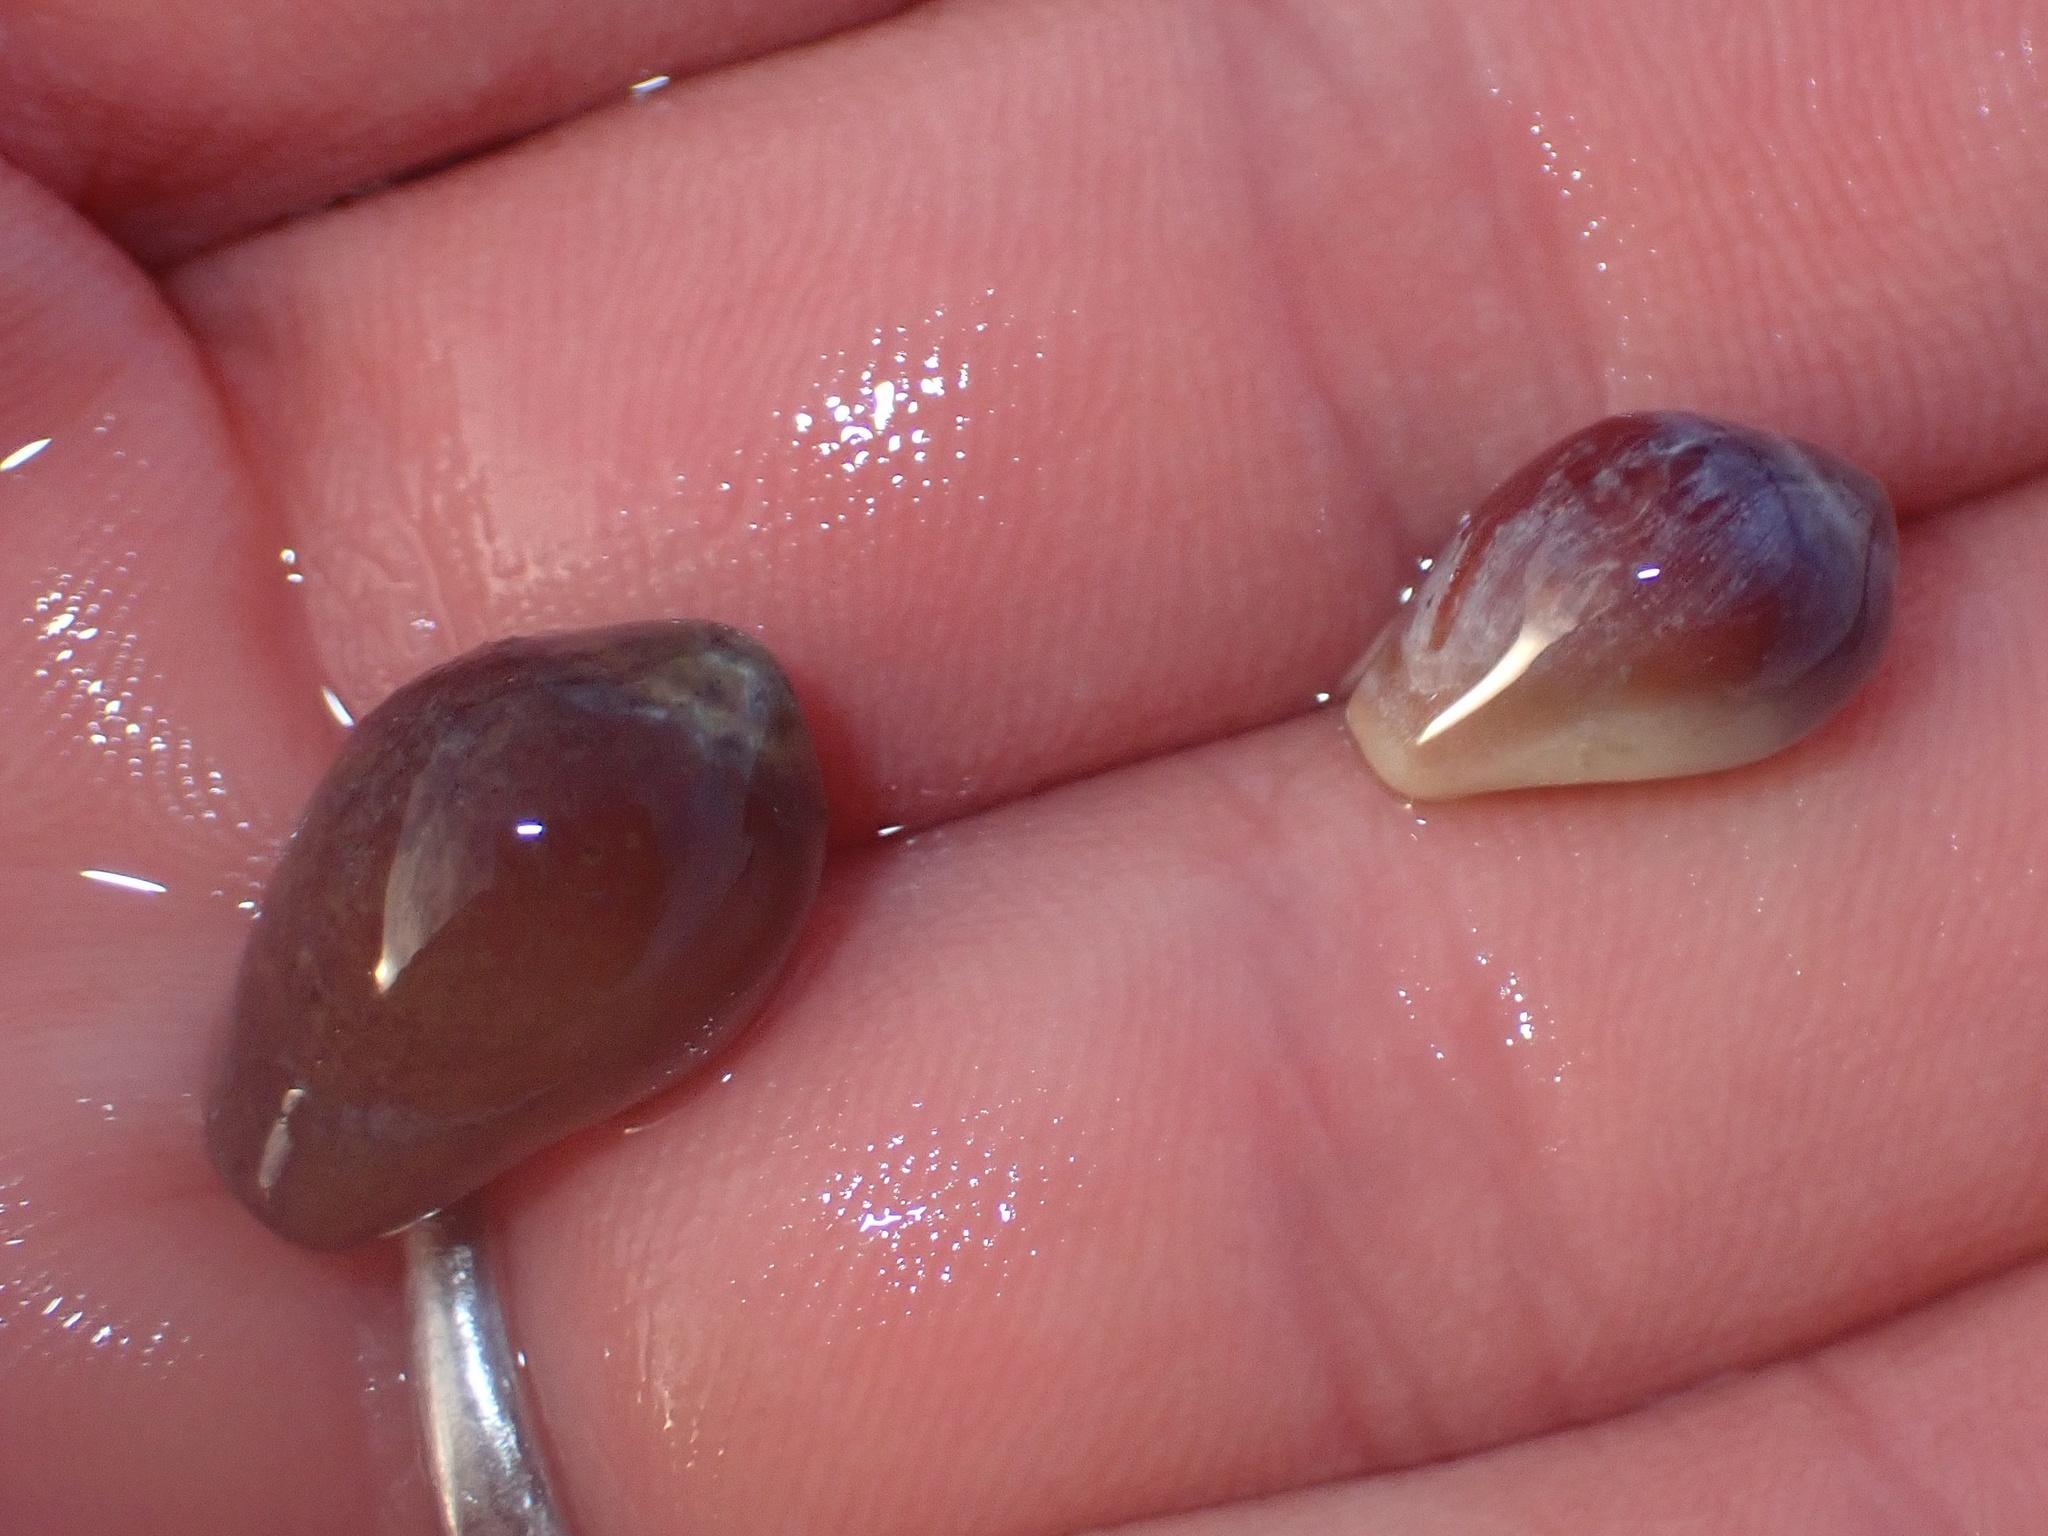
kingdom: Animalia
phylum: Mollusca
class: Gastropoda
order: Littorinimorpha
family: Eratoidae
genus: Hespererato
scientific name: Hespererato vitellina
